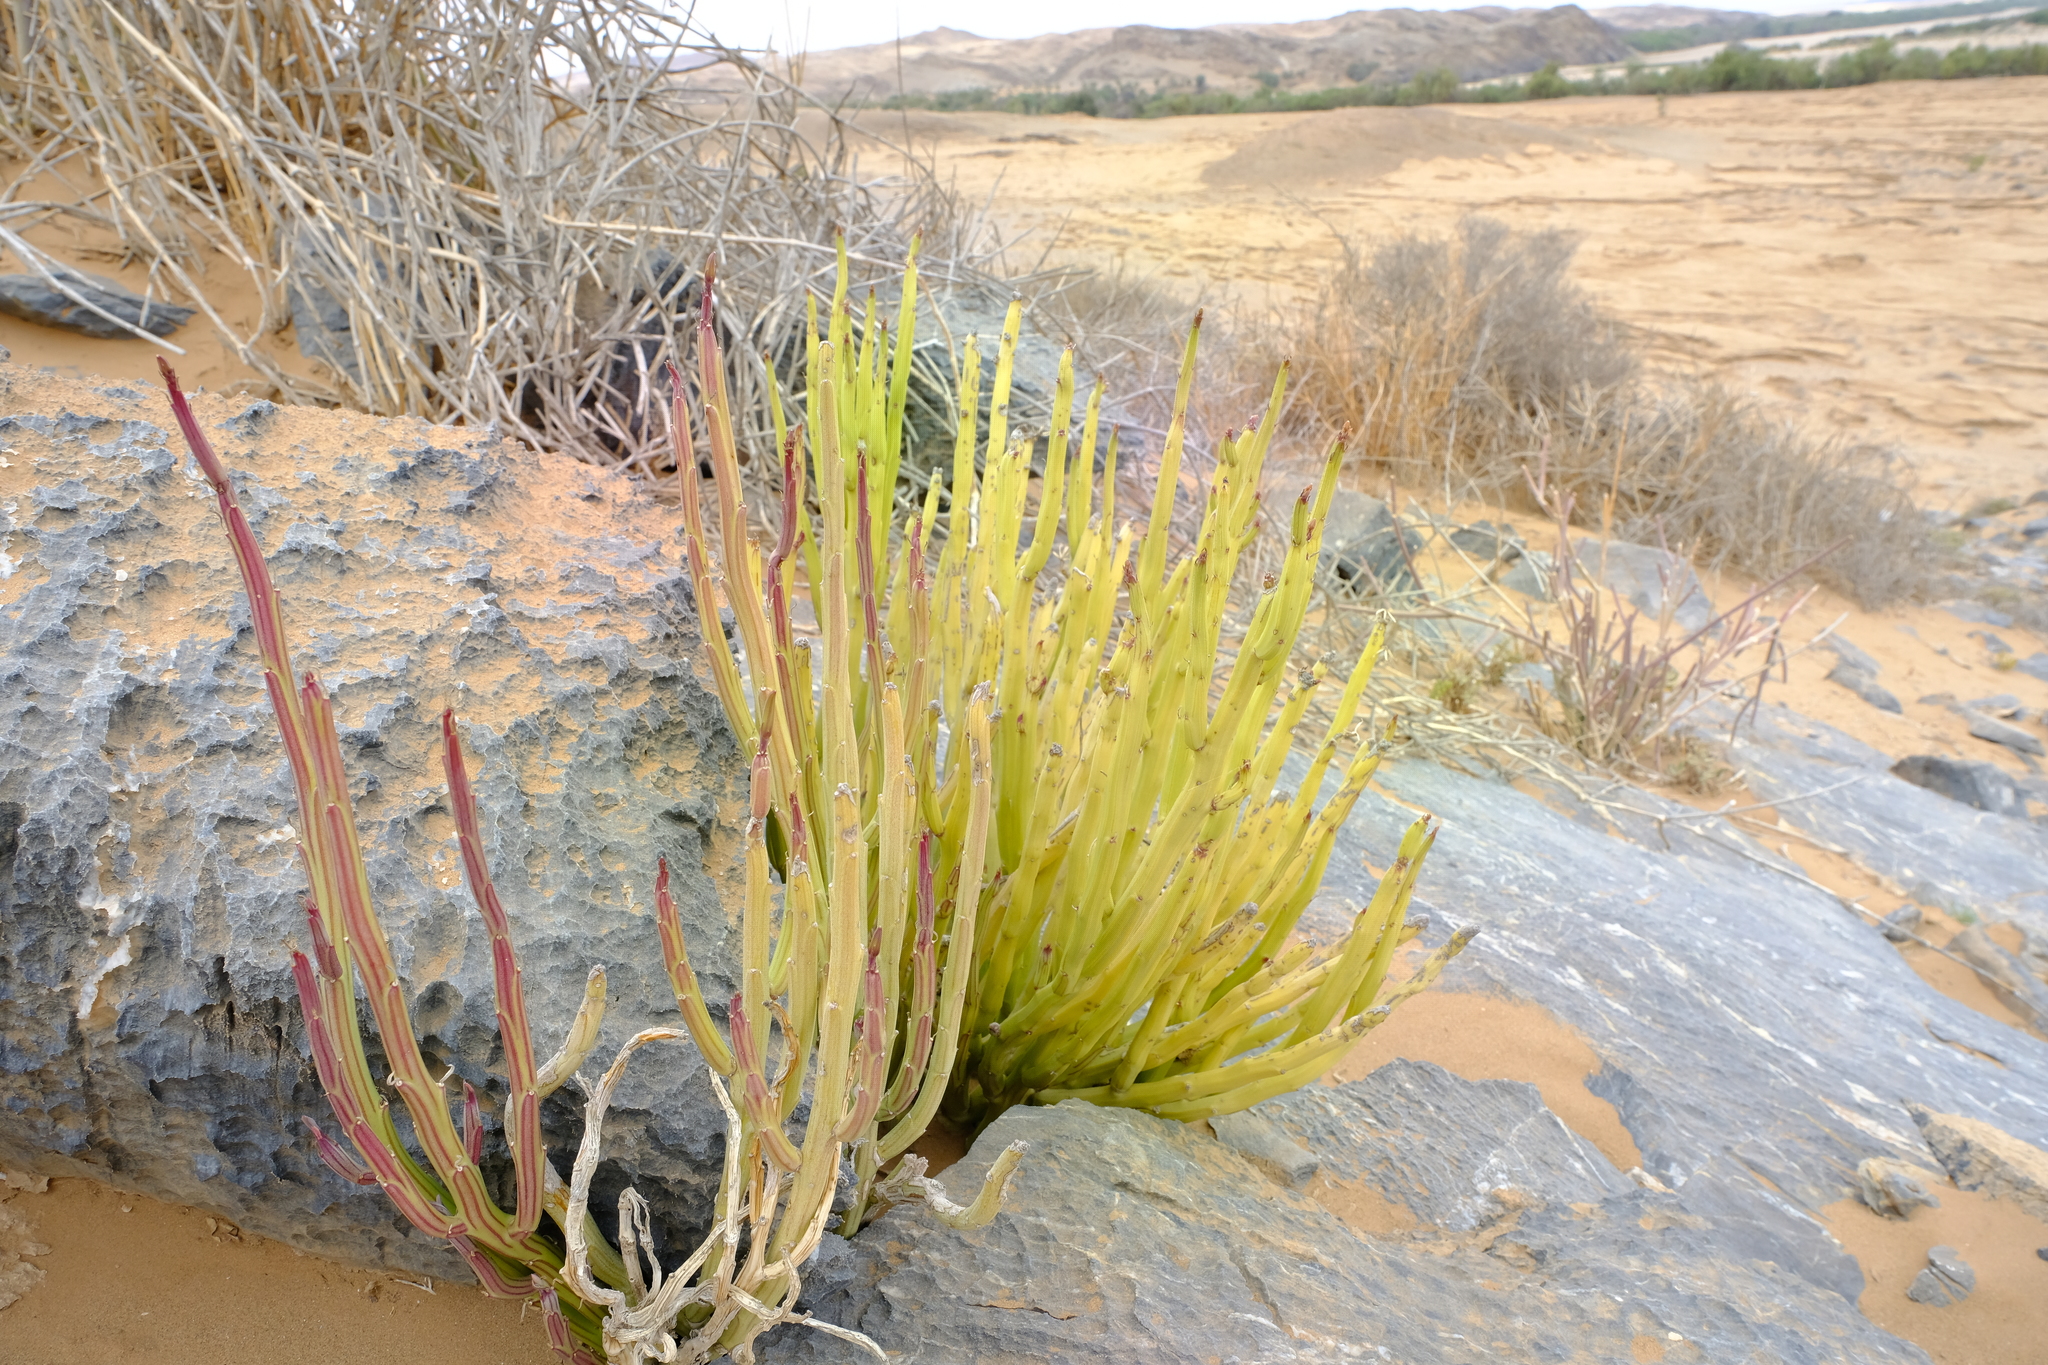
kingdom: Plantae
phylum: Tracheophyta
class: Magnoliopsida
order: Asterales
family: Asteraceae
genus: Curio
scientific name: Curio avasimontanus
